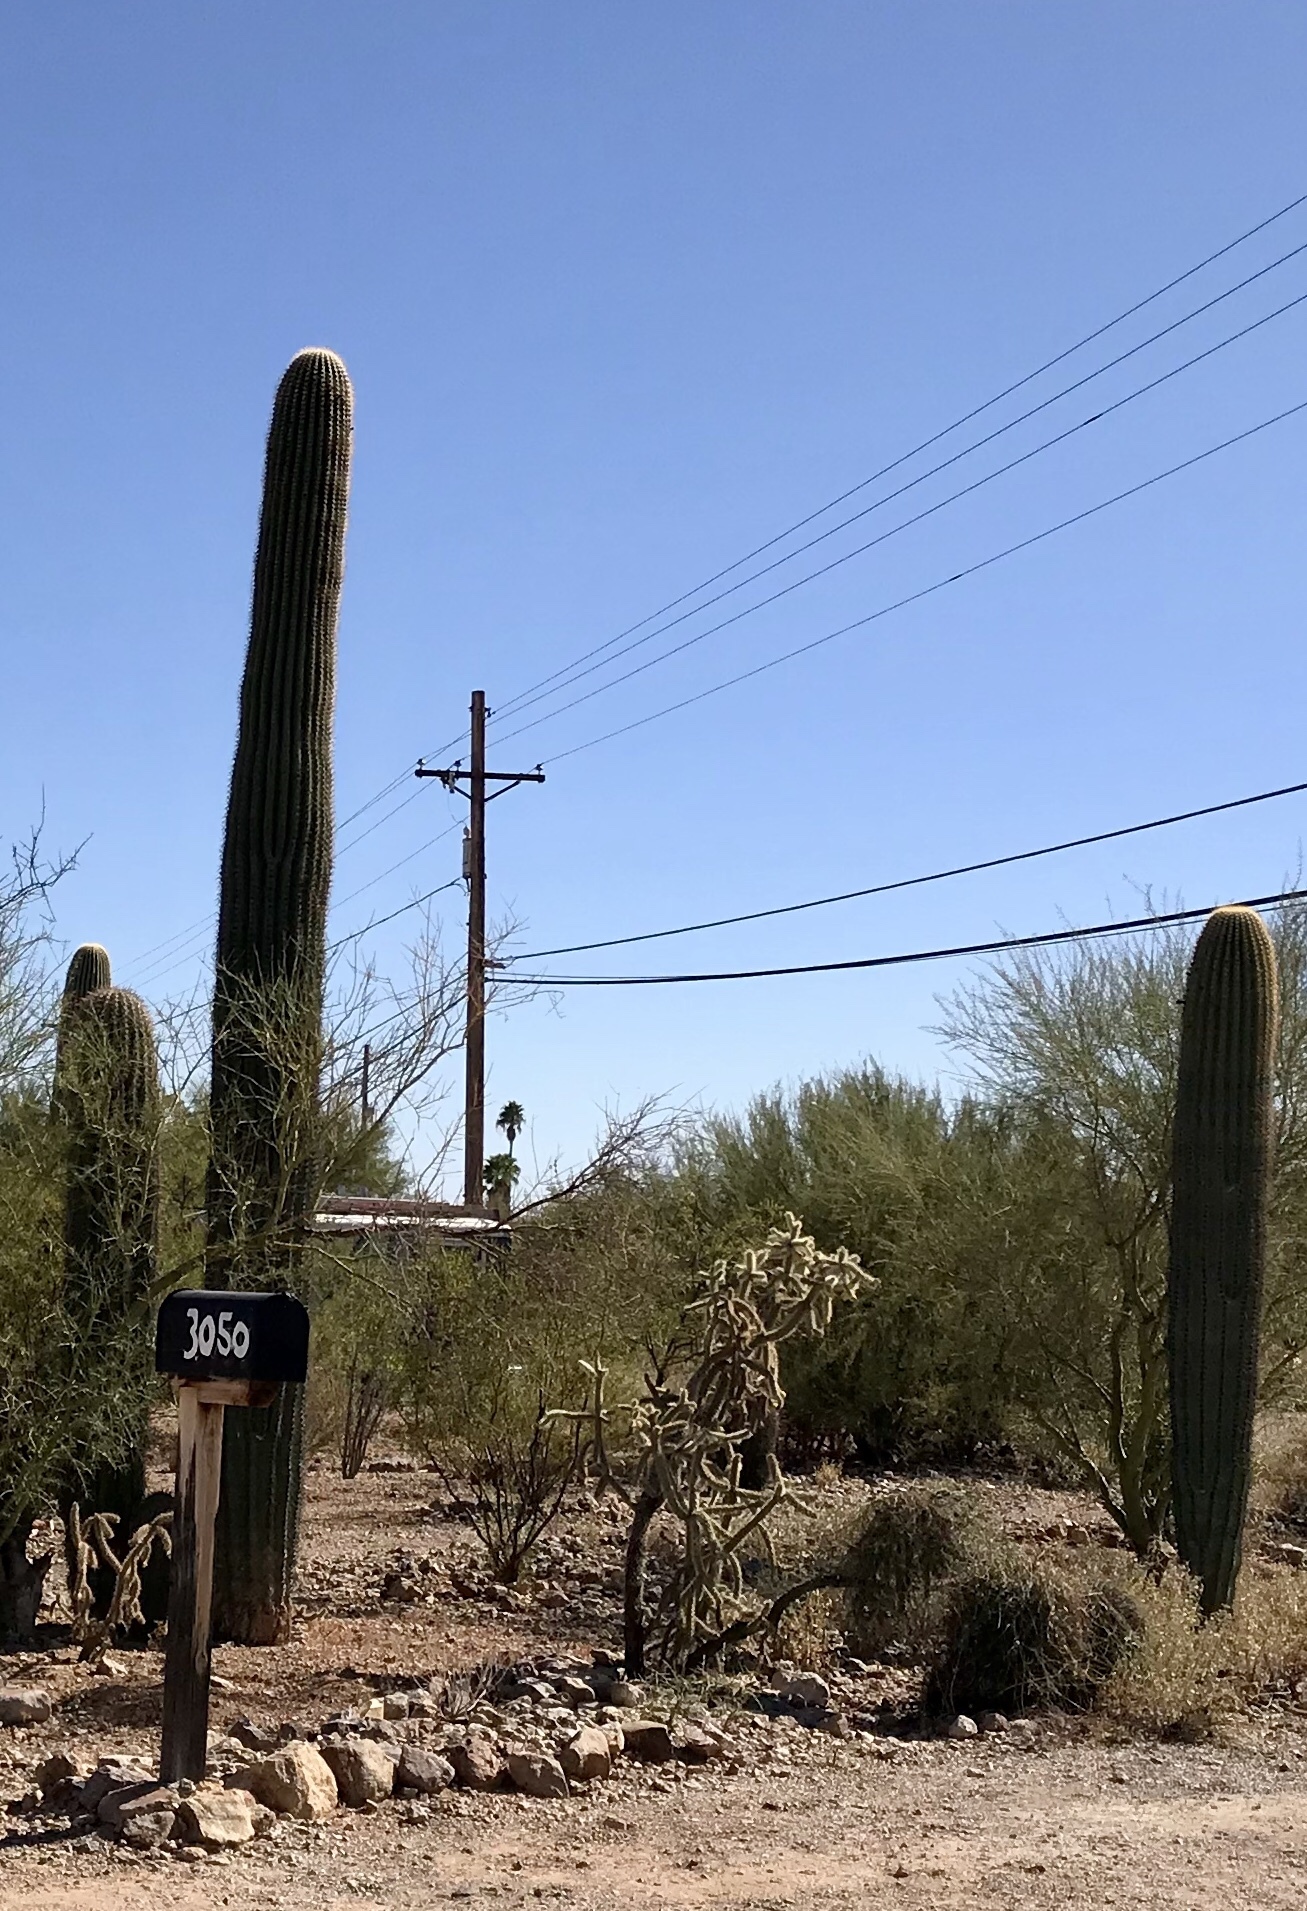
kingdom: Plantae
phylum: Tracheophyta
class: Magnoliopsida
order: Caryophyllales
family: Cactaceae
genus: Carnegiea
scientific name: Carnegiea gigantea
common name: Saguaro
